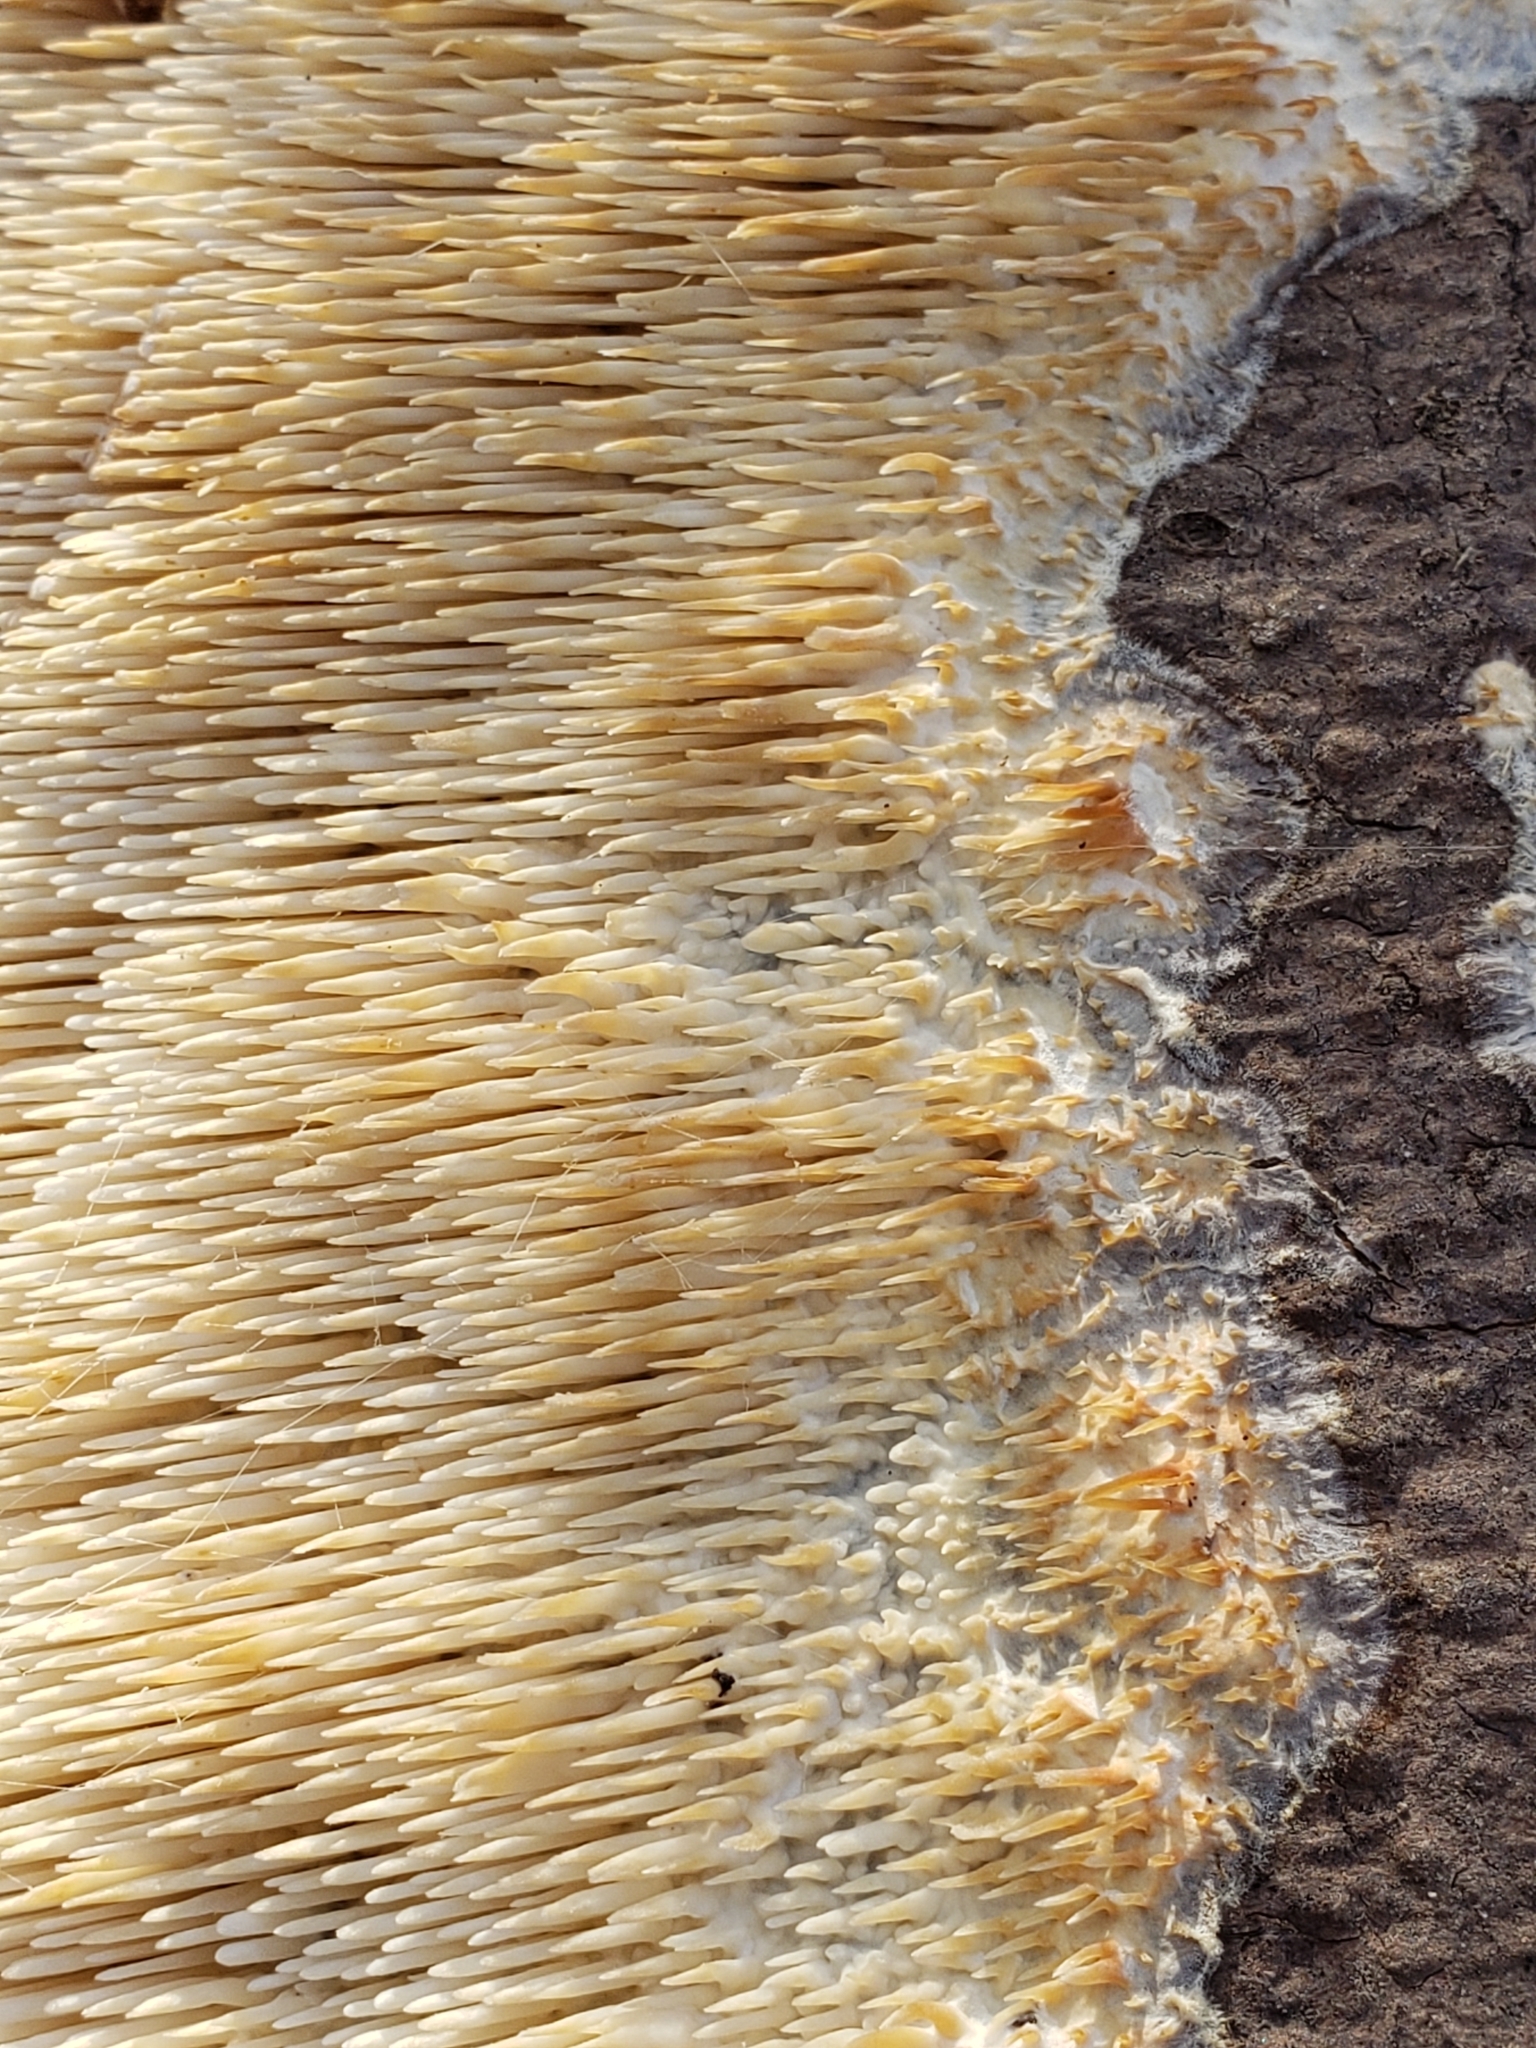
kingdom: Fungi
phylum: Basidiomycota
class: Agaricomycetes
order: Agaricales
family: Radulomycetaceae
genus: Radulomyces
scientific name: Radulomyces copelandii
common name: Asian beauty
